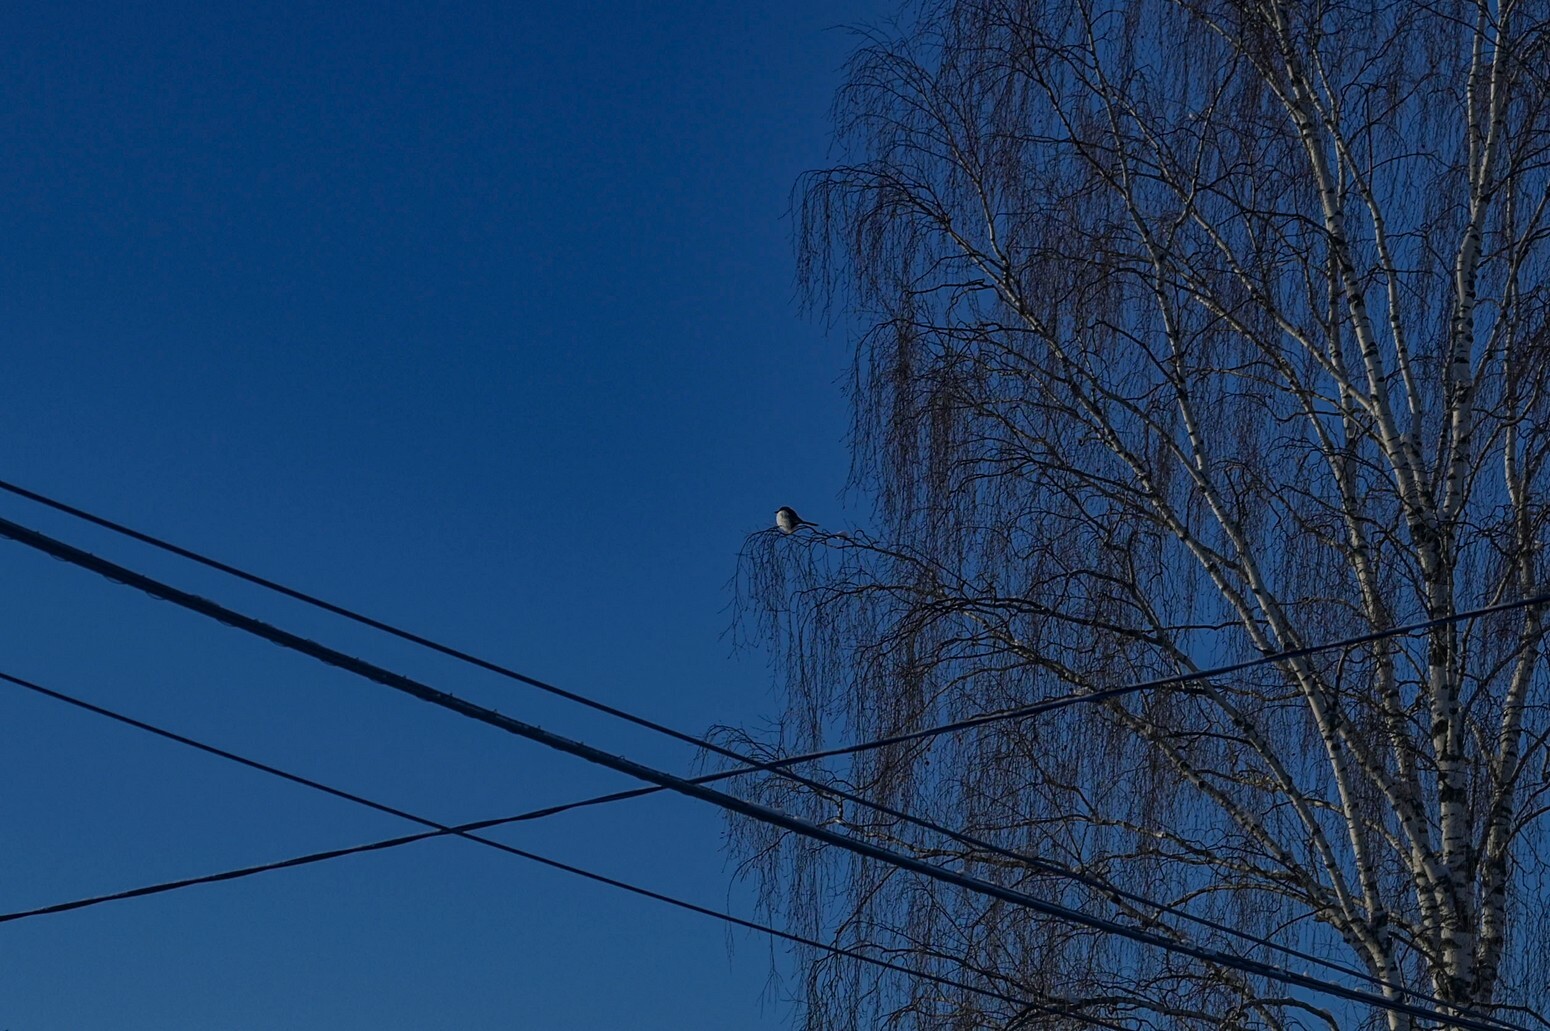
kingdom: Animalia
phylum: Chordata
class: Aves
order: Passeriformes
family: Corvidae
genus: Pica
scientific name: Pica pica
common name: Eurasian magpie
